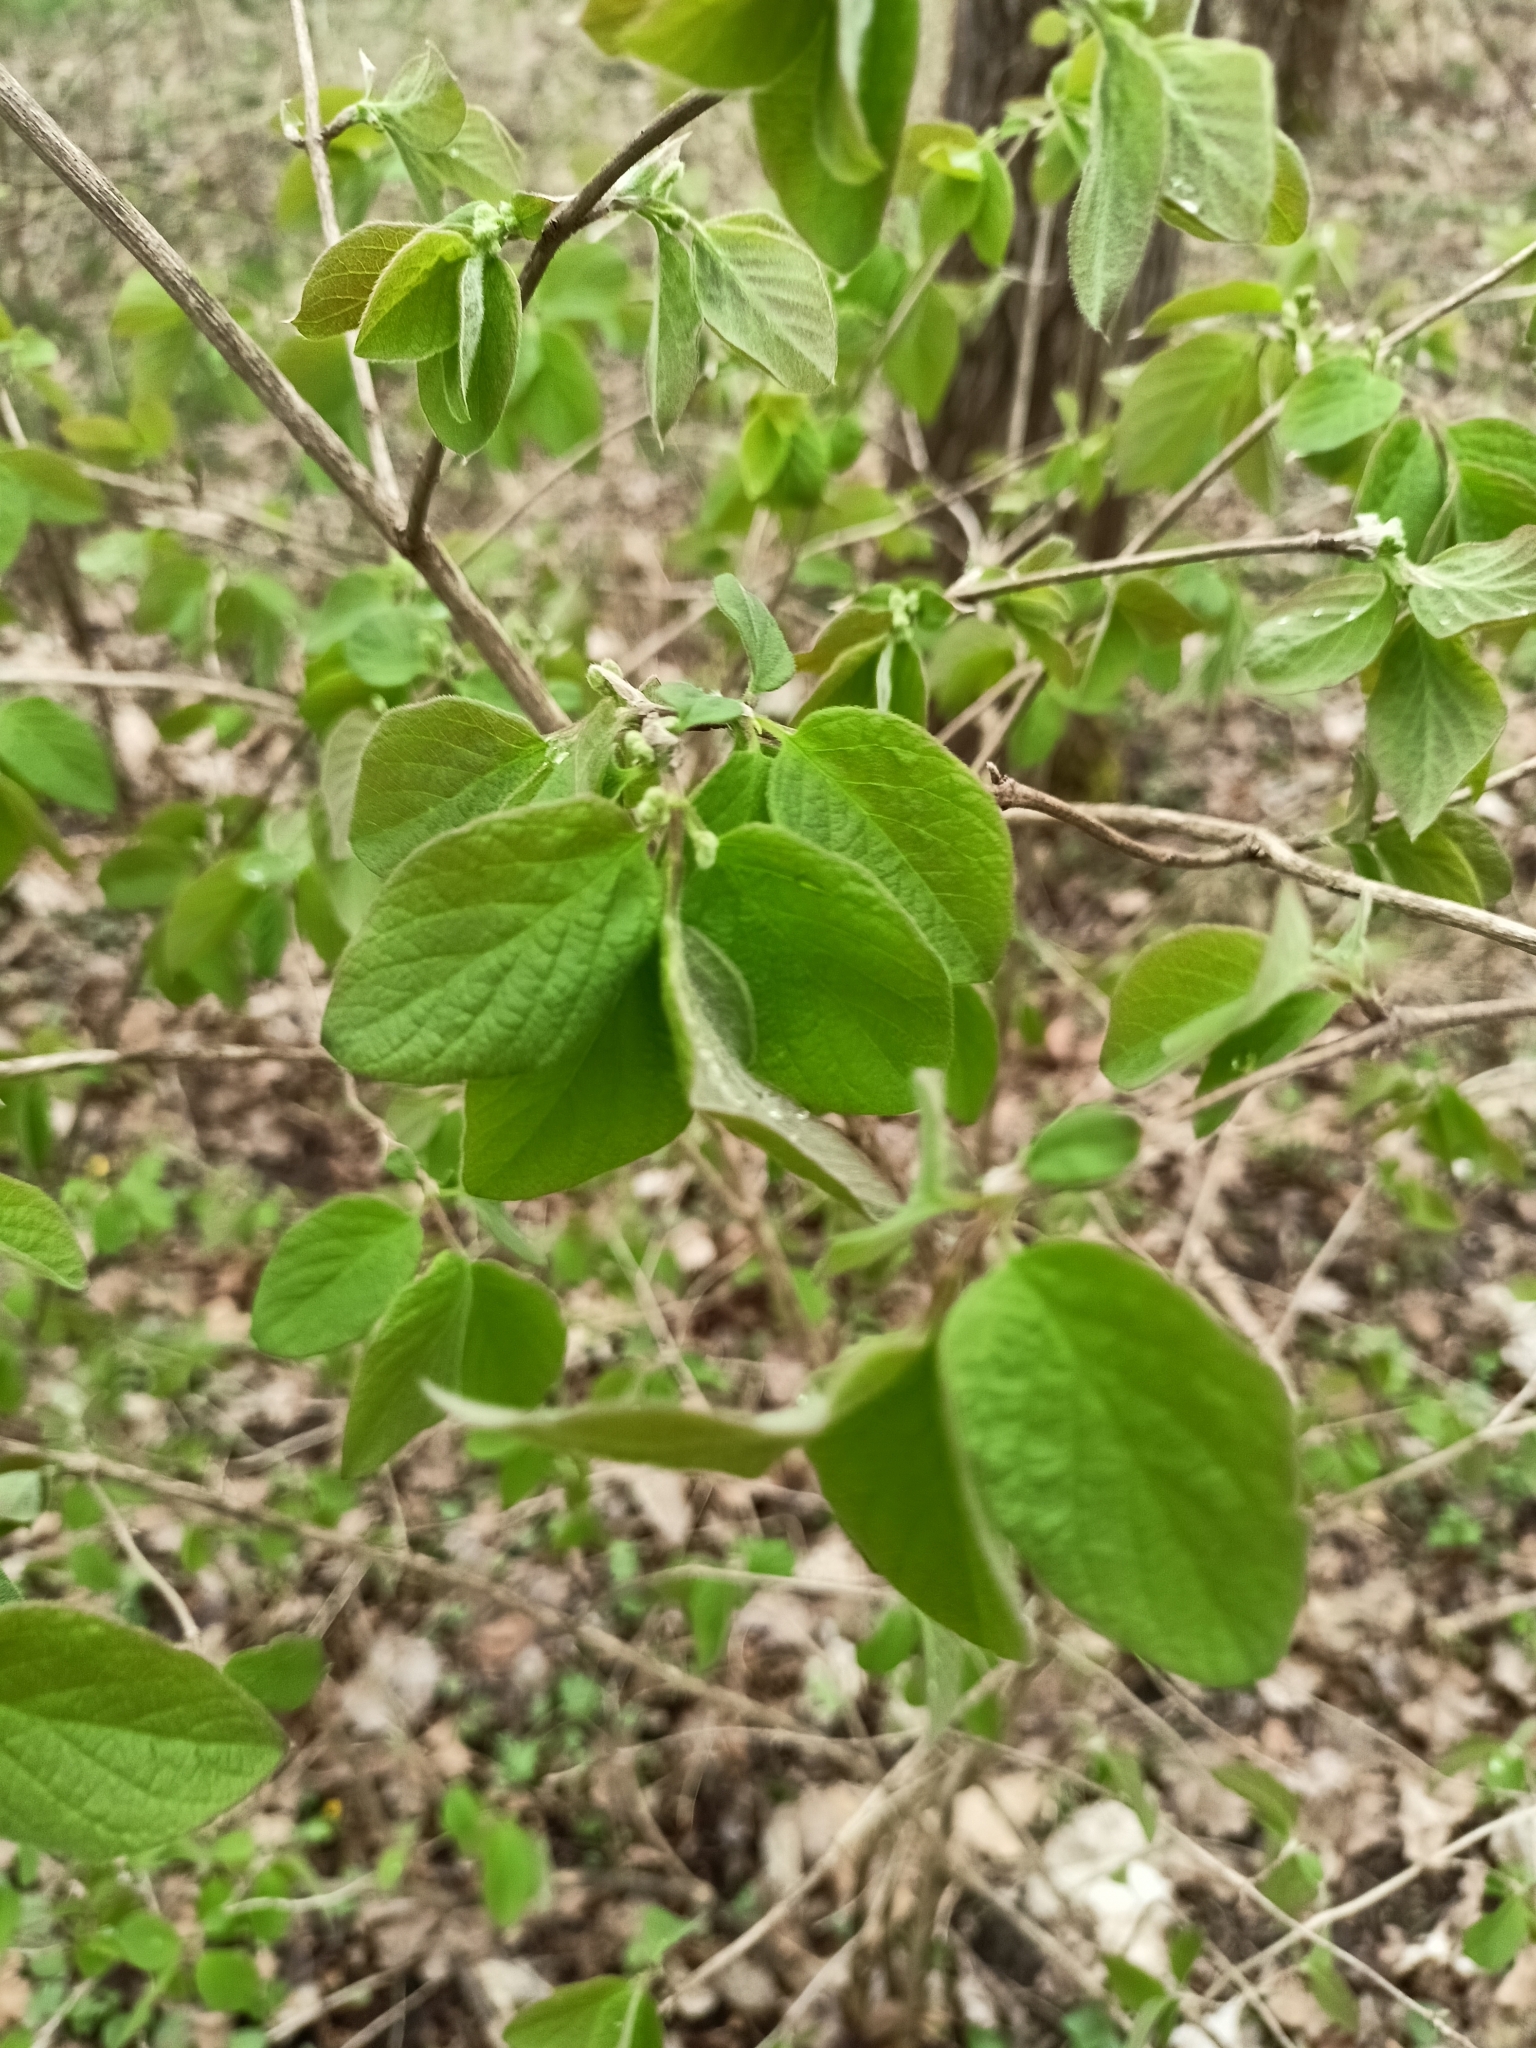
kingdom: Plantae
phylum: Tracheophyta
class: Magnoliopsida
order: Dipsacales
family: Caprifoliaceae
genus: Lonicera
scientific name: Lonicera xylosteum
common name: Fly honeysuckle
